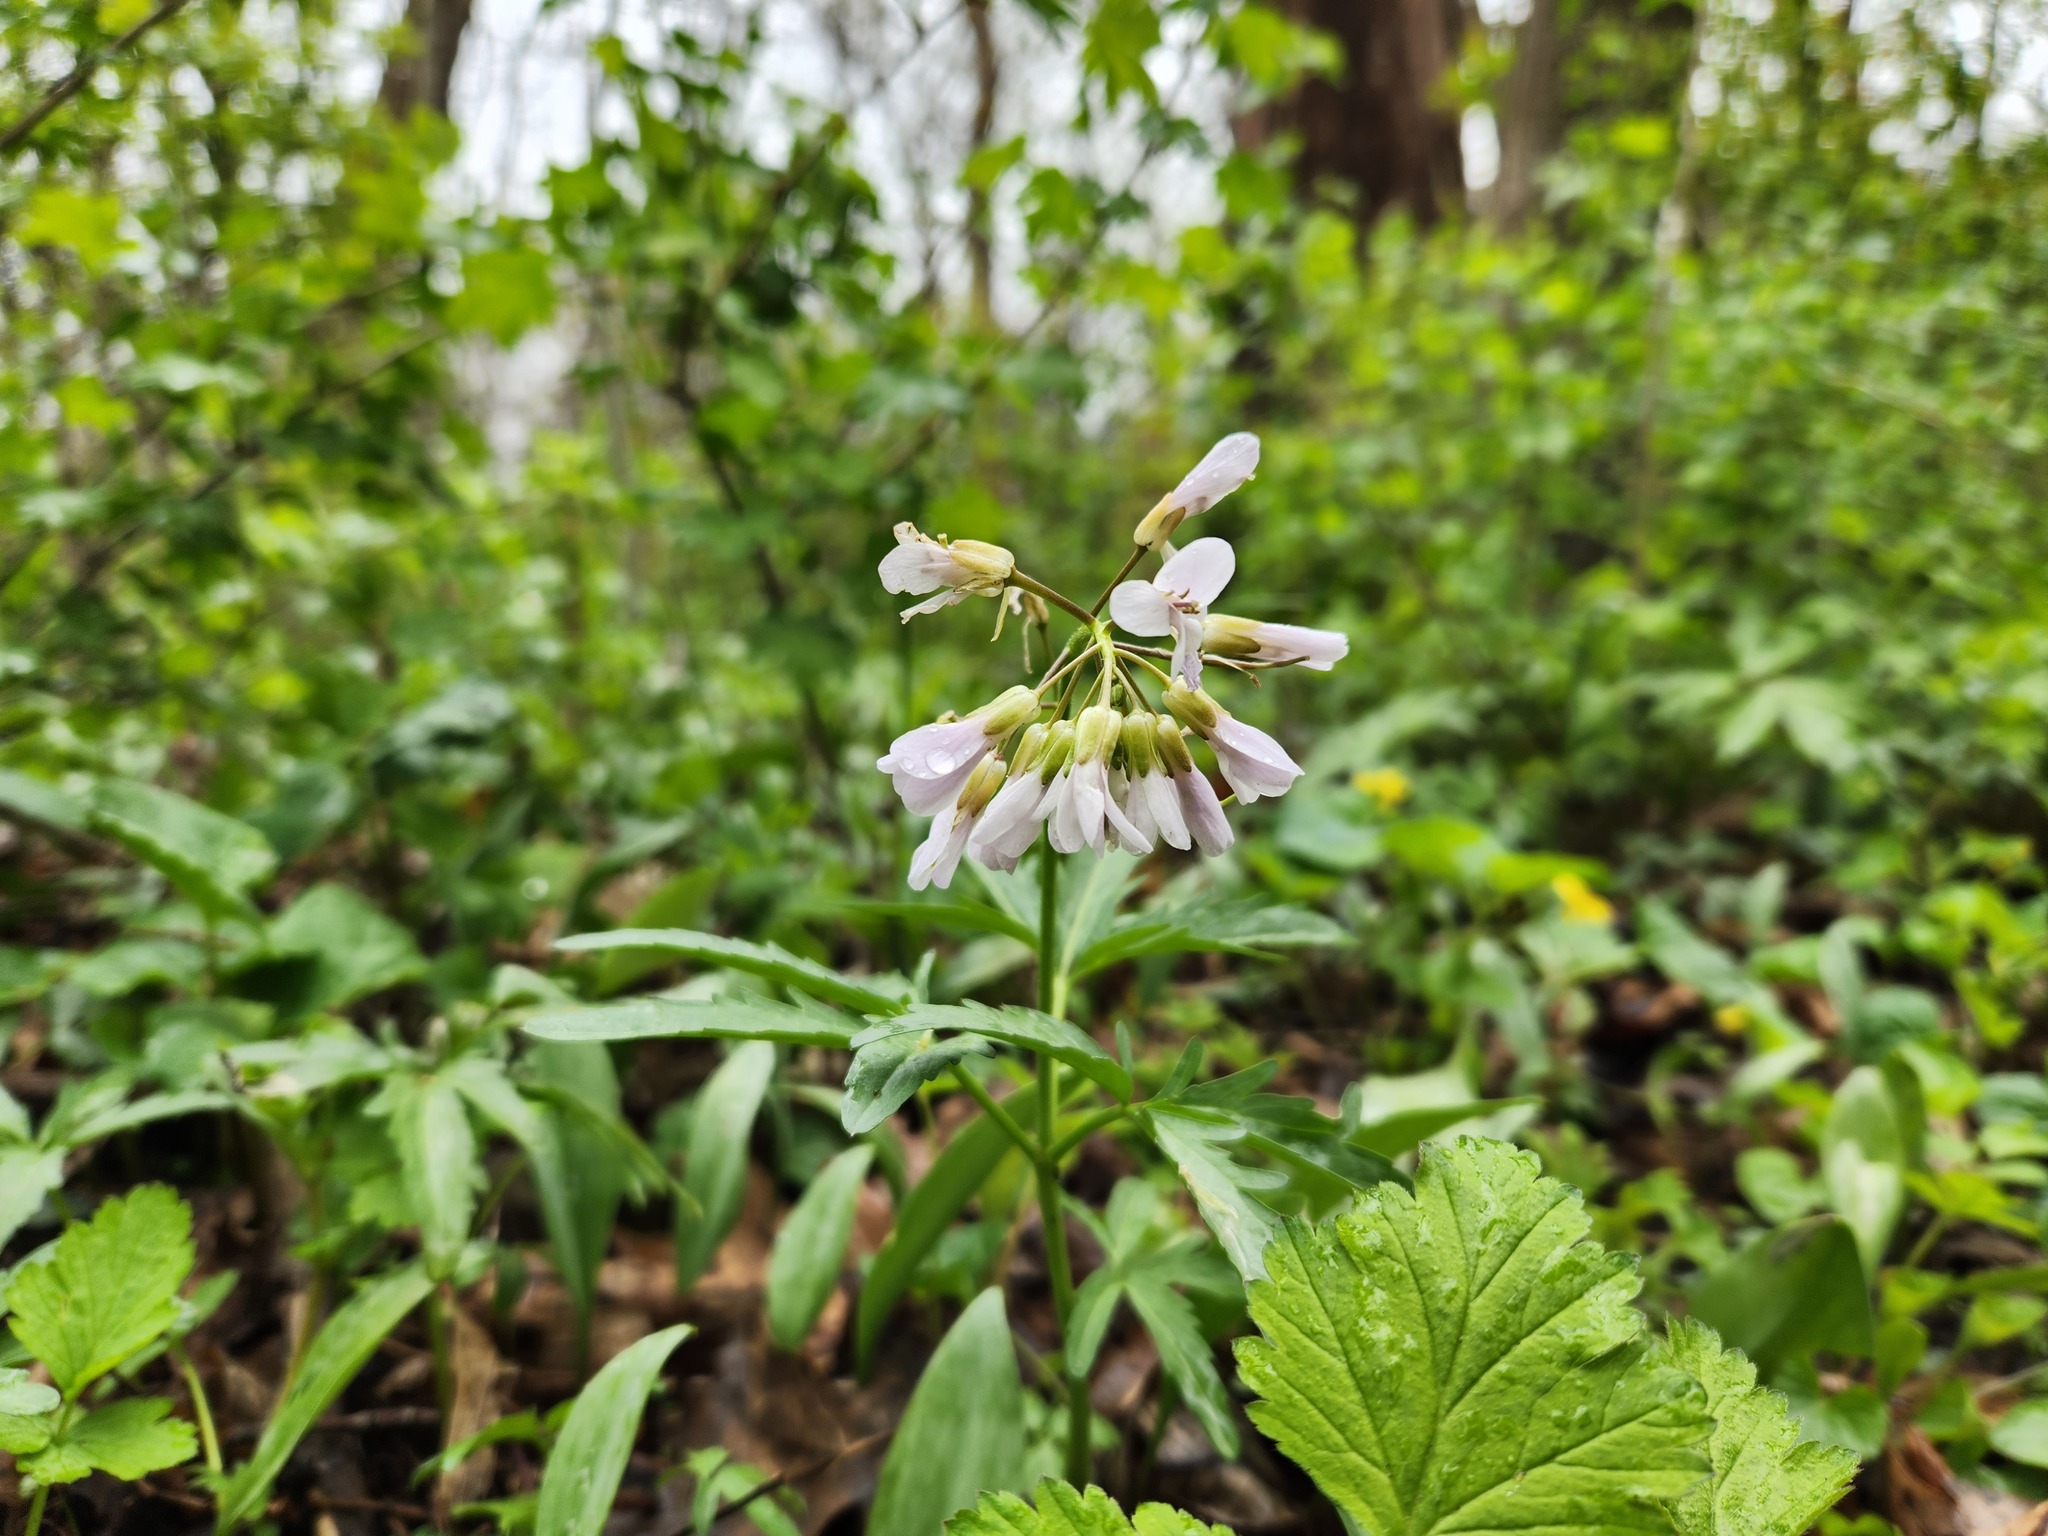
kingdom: Plantae
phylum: Tracheophyta
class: Magnoliopsida
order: Brassicales
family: Brassicaceae
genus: Cardamine
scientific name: Cardamine concatenata
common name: Cut-leaf toothcup
